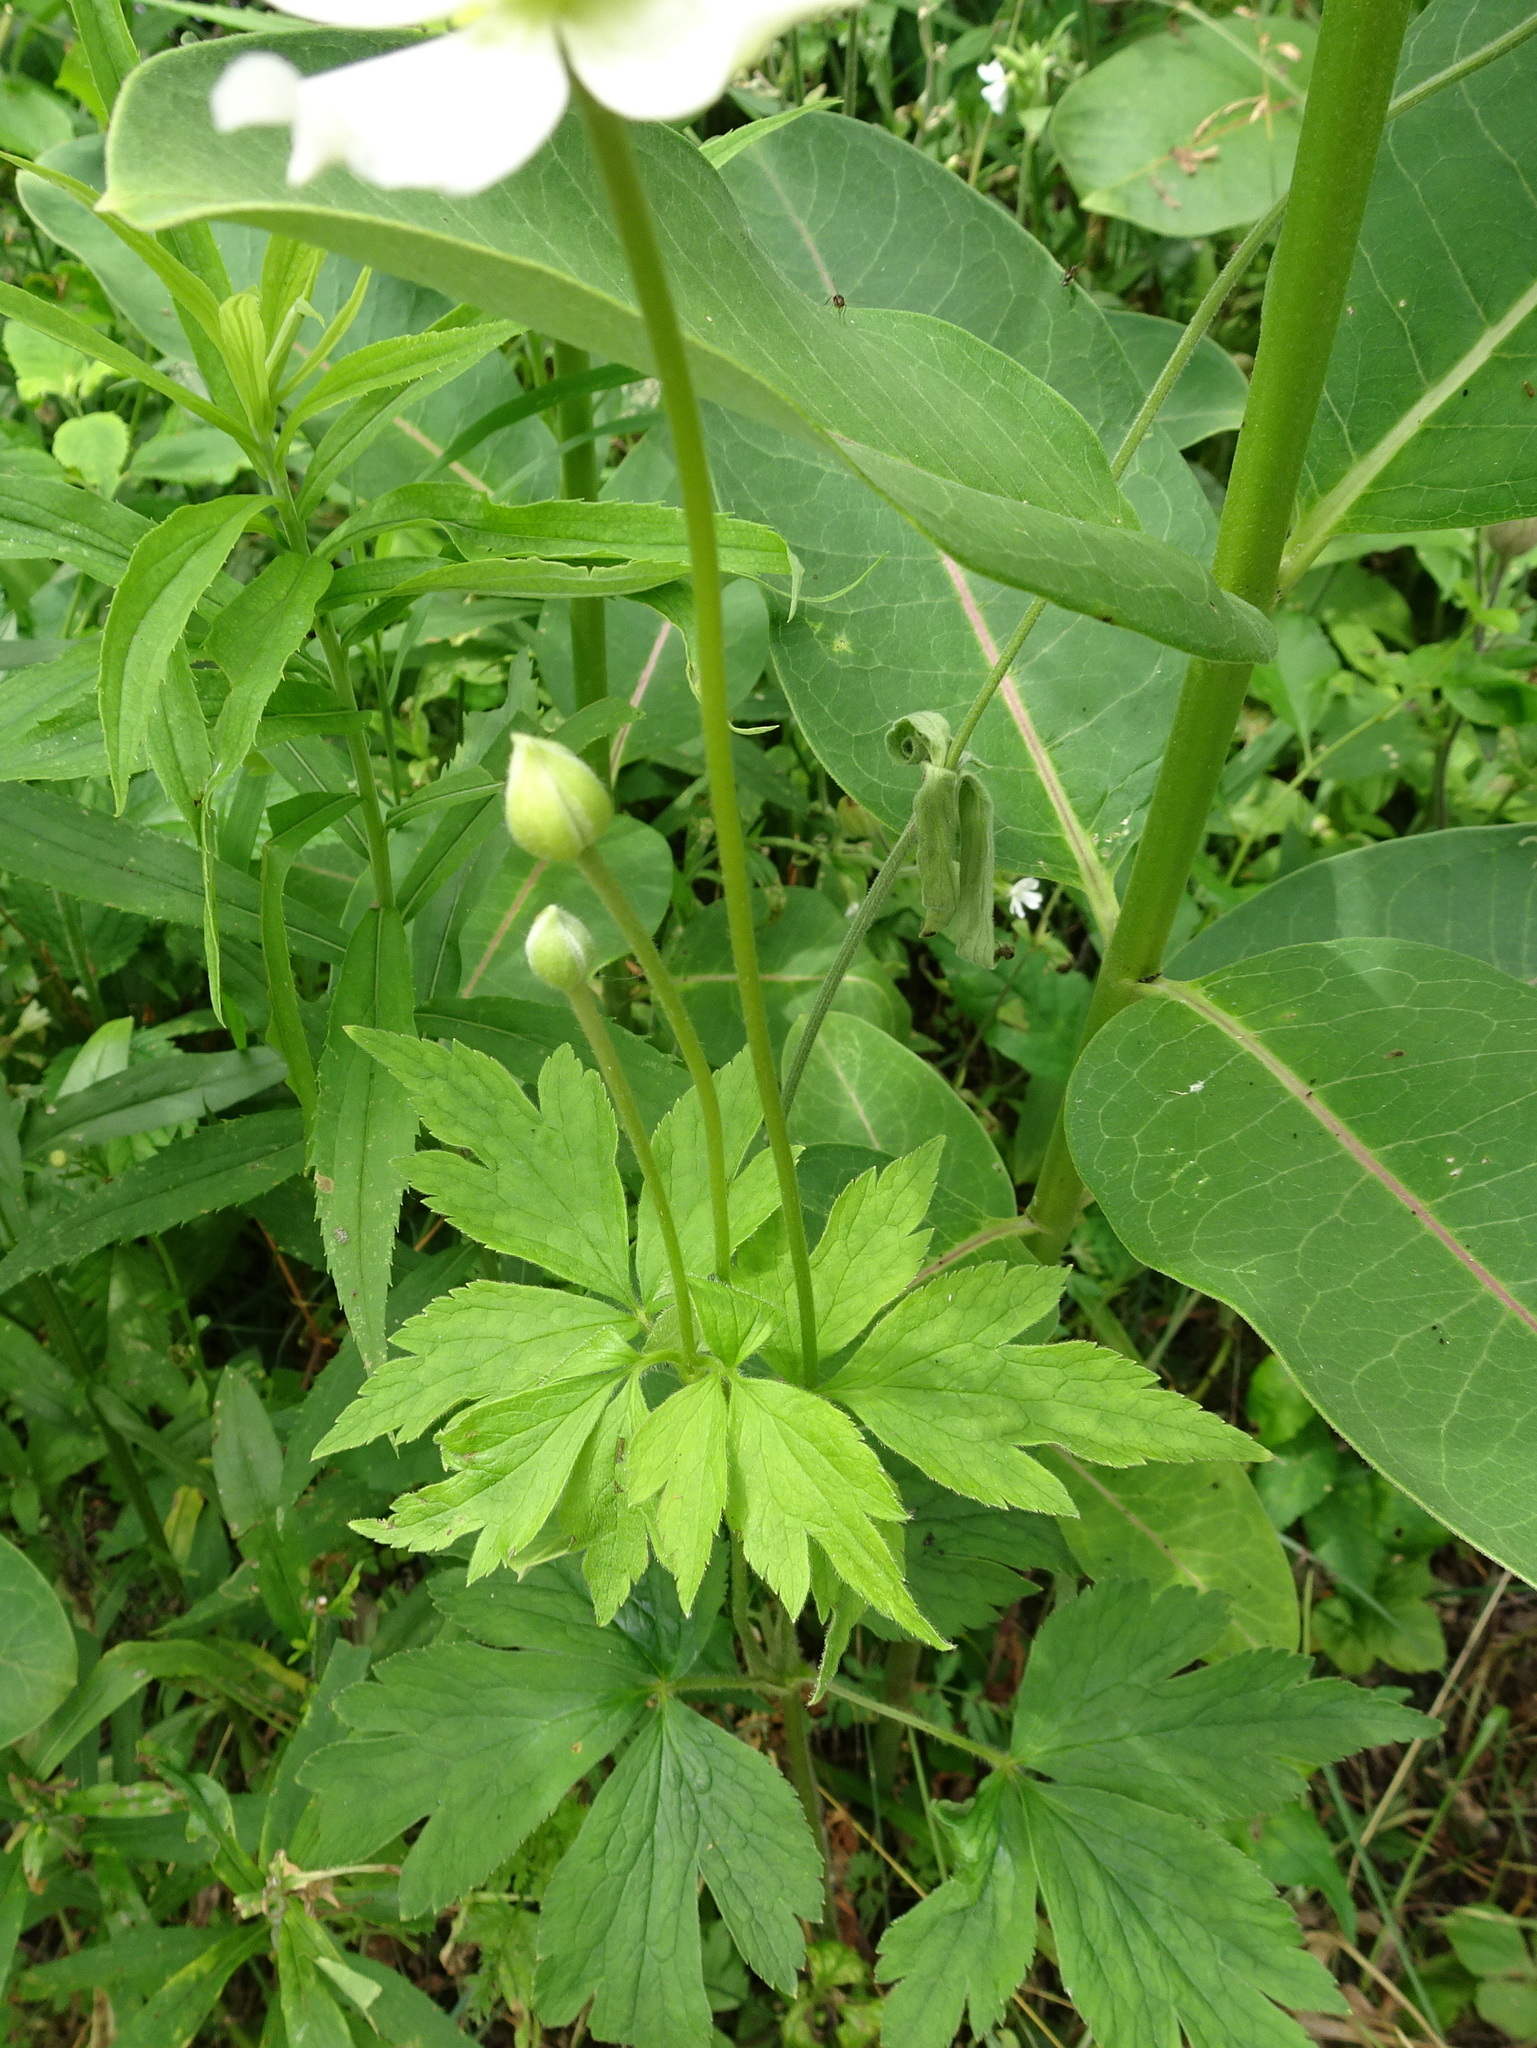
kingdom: Plantae
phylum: Tracheophyta
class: Magnoliopsida
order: Ranunculales
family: Ranunculaceae
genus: Anemone
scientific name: Anemone virginiana
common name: Tall anemone
